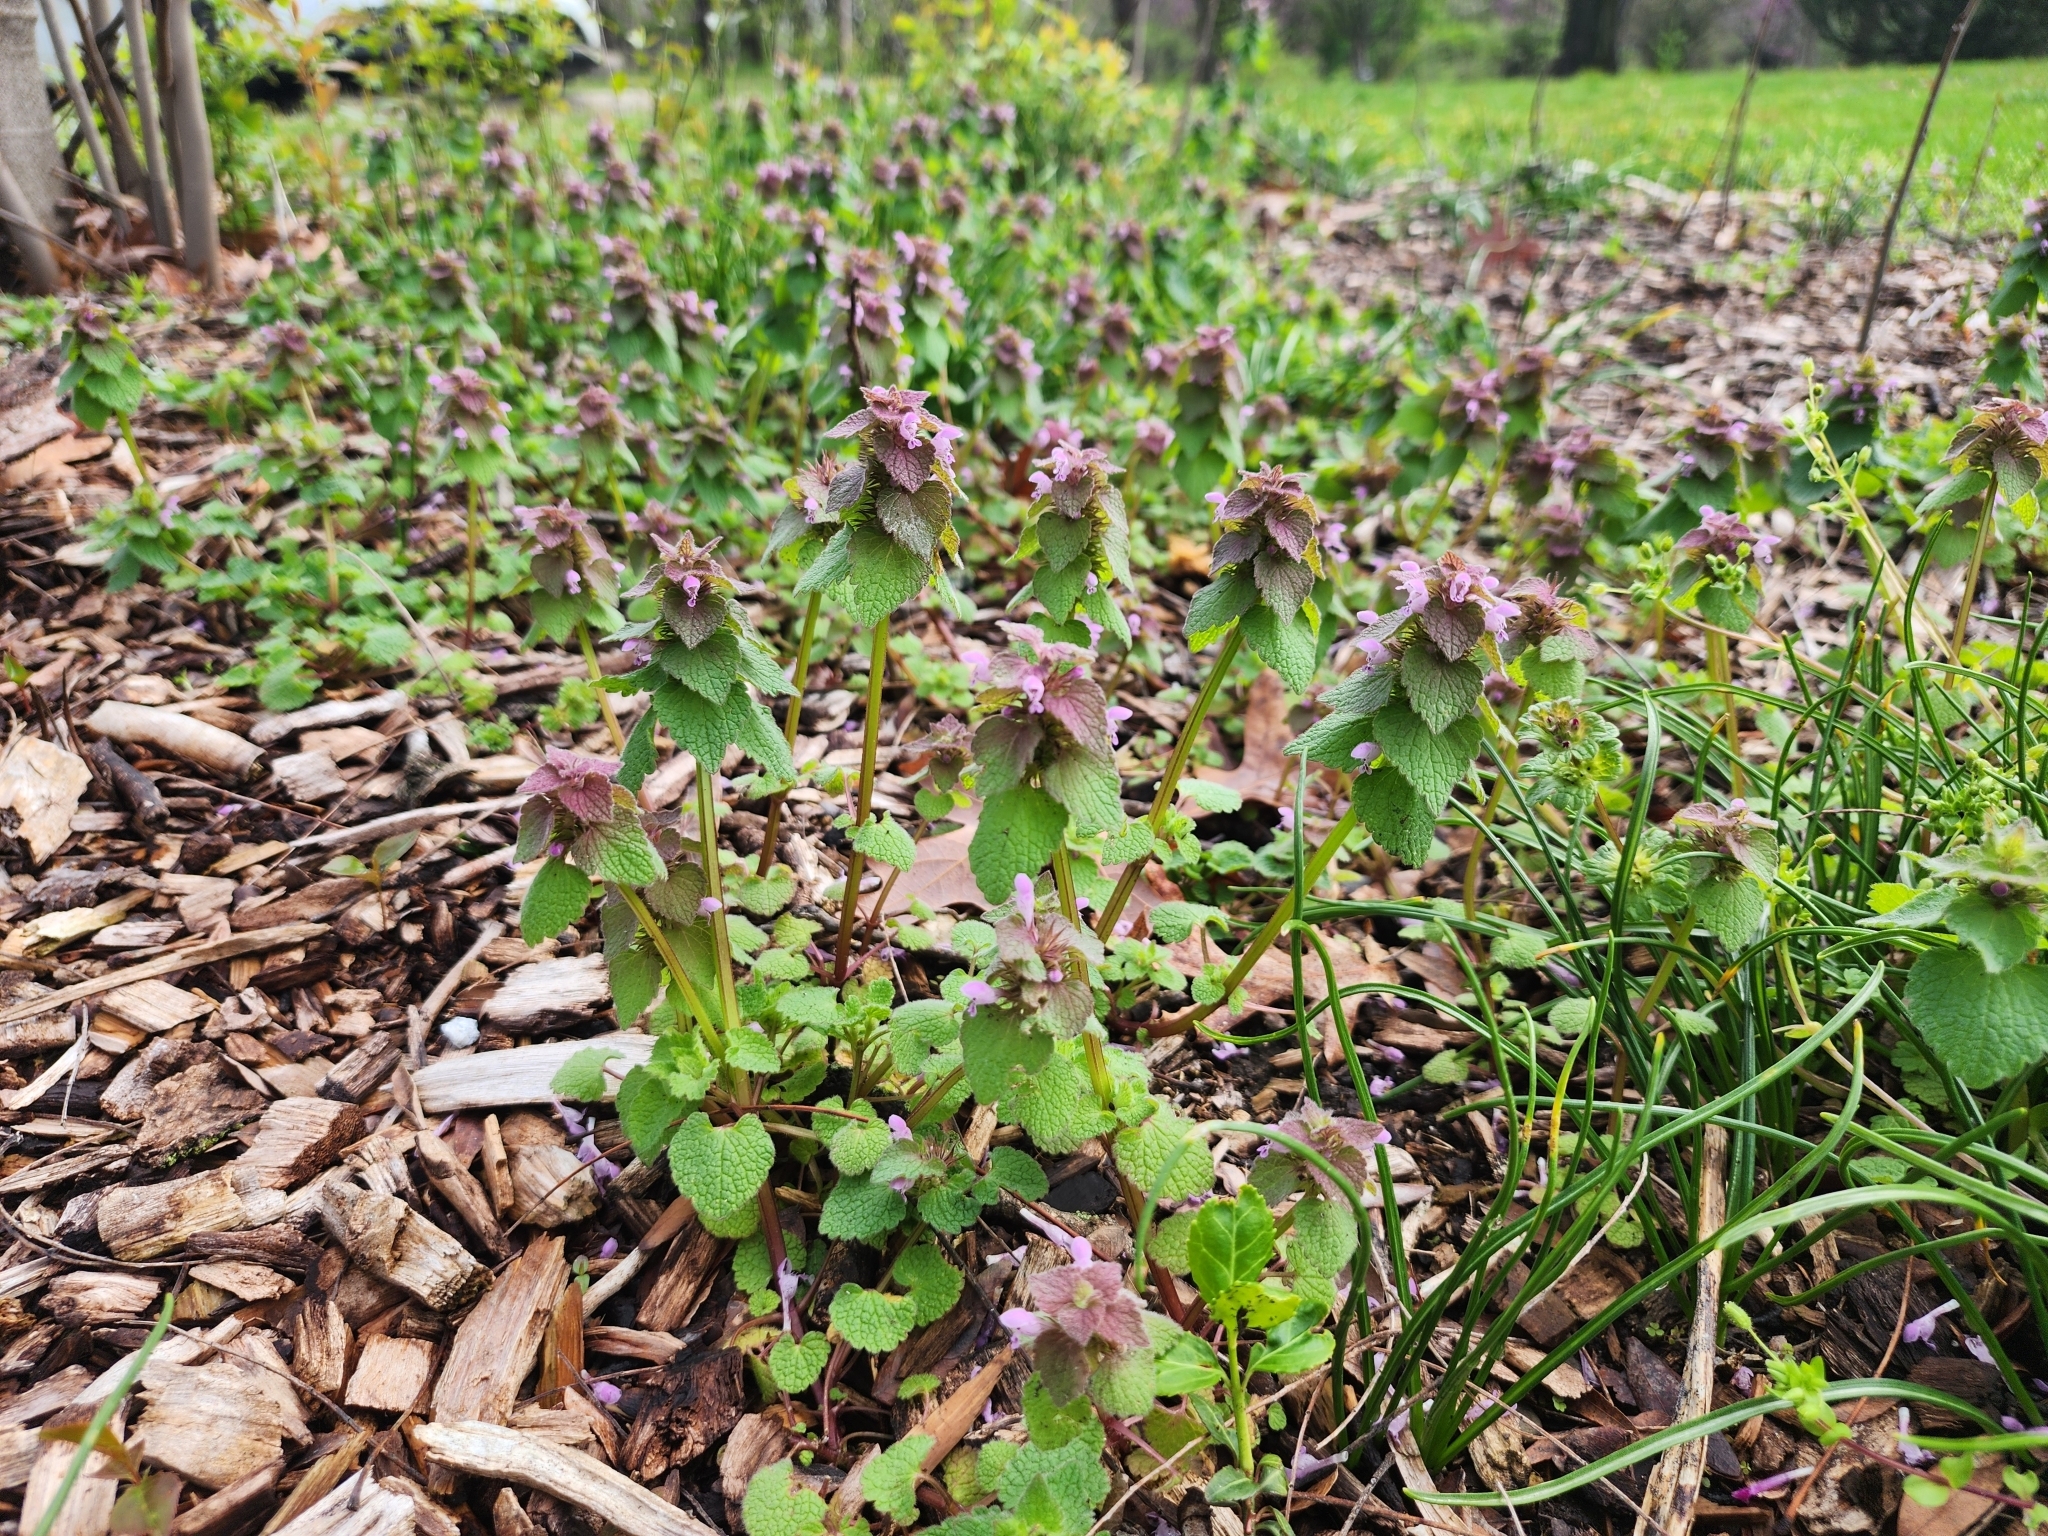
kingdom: Plantae
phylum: Tracheophyta
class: Magnoliopsida
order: Lamiales
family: Lamiaceae
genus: Lamium
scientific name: Lamium purpureum
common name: Red dead-nettle
